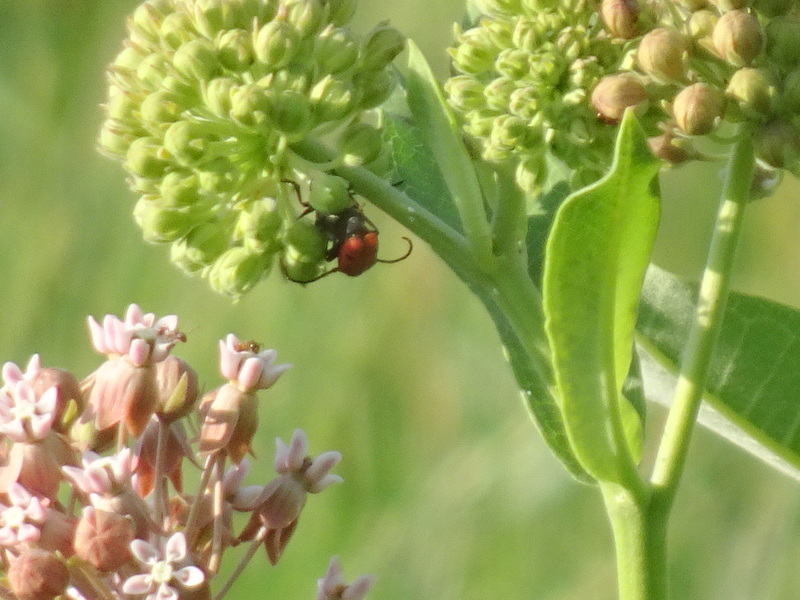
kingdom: Animalia
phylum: Arthropoda
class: Insecta
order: Coleoptera
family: Cerambycidae
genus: Tetraopes
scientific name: Tetraopes tetrophthalmus
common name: Red milkweed beetle
